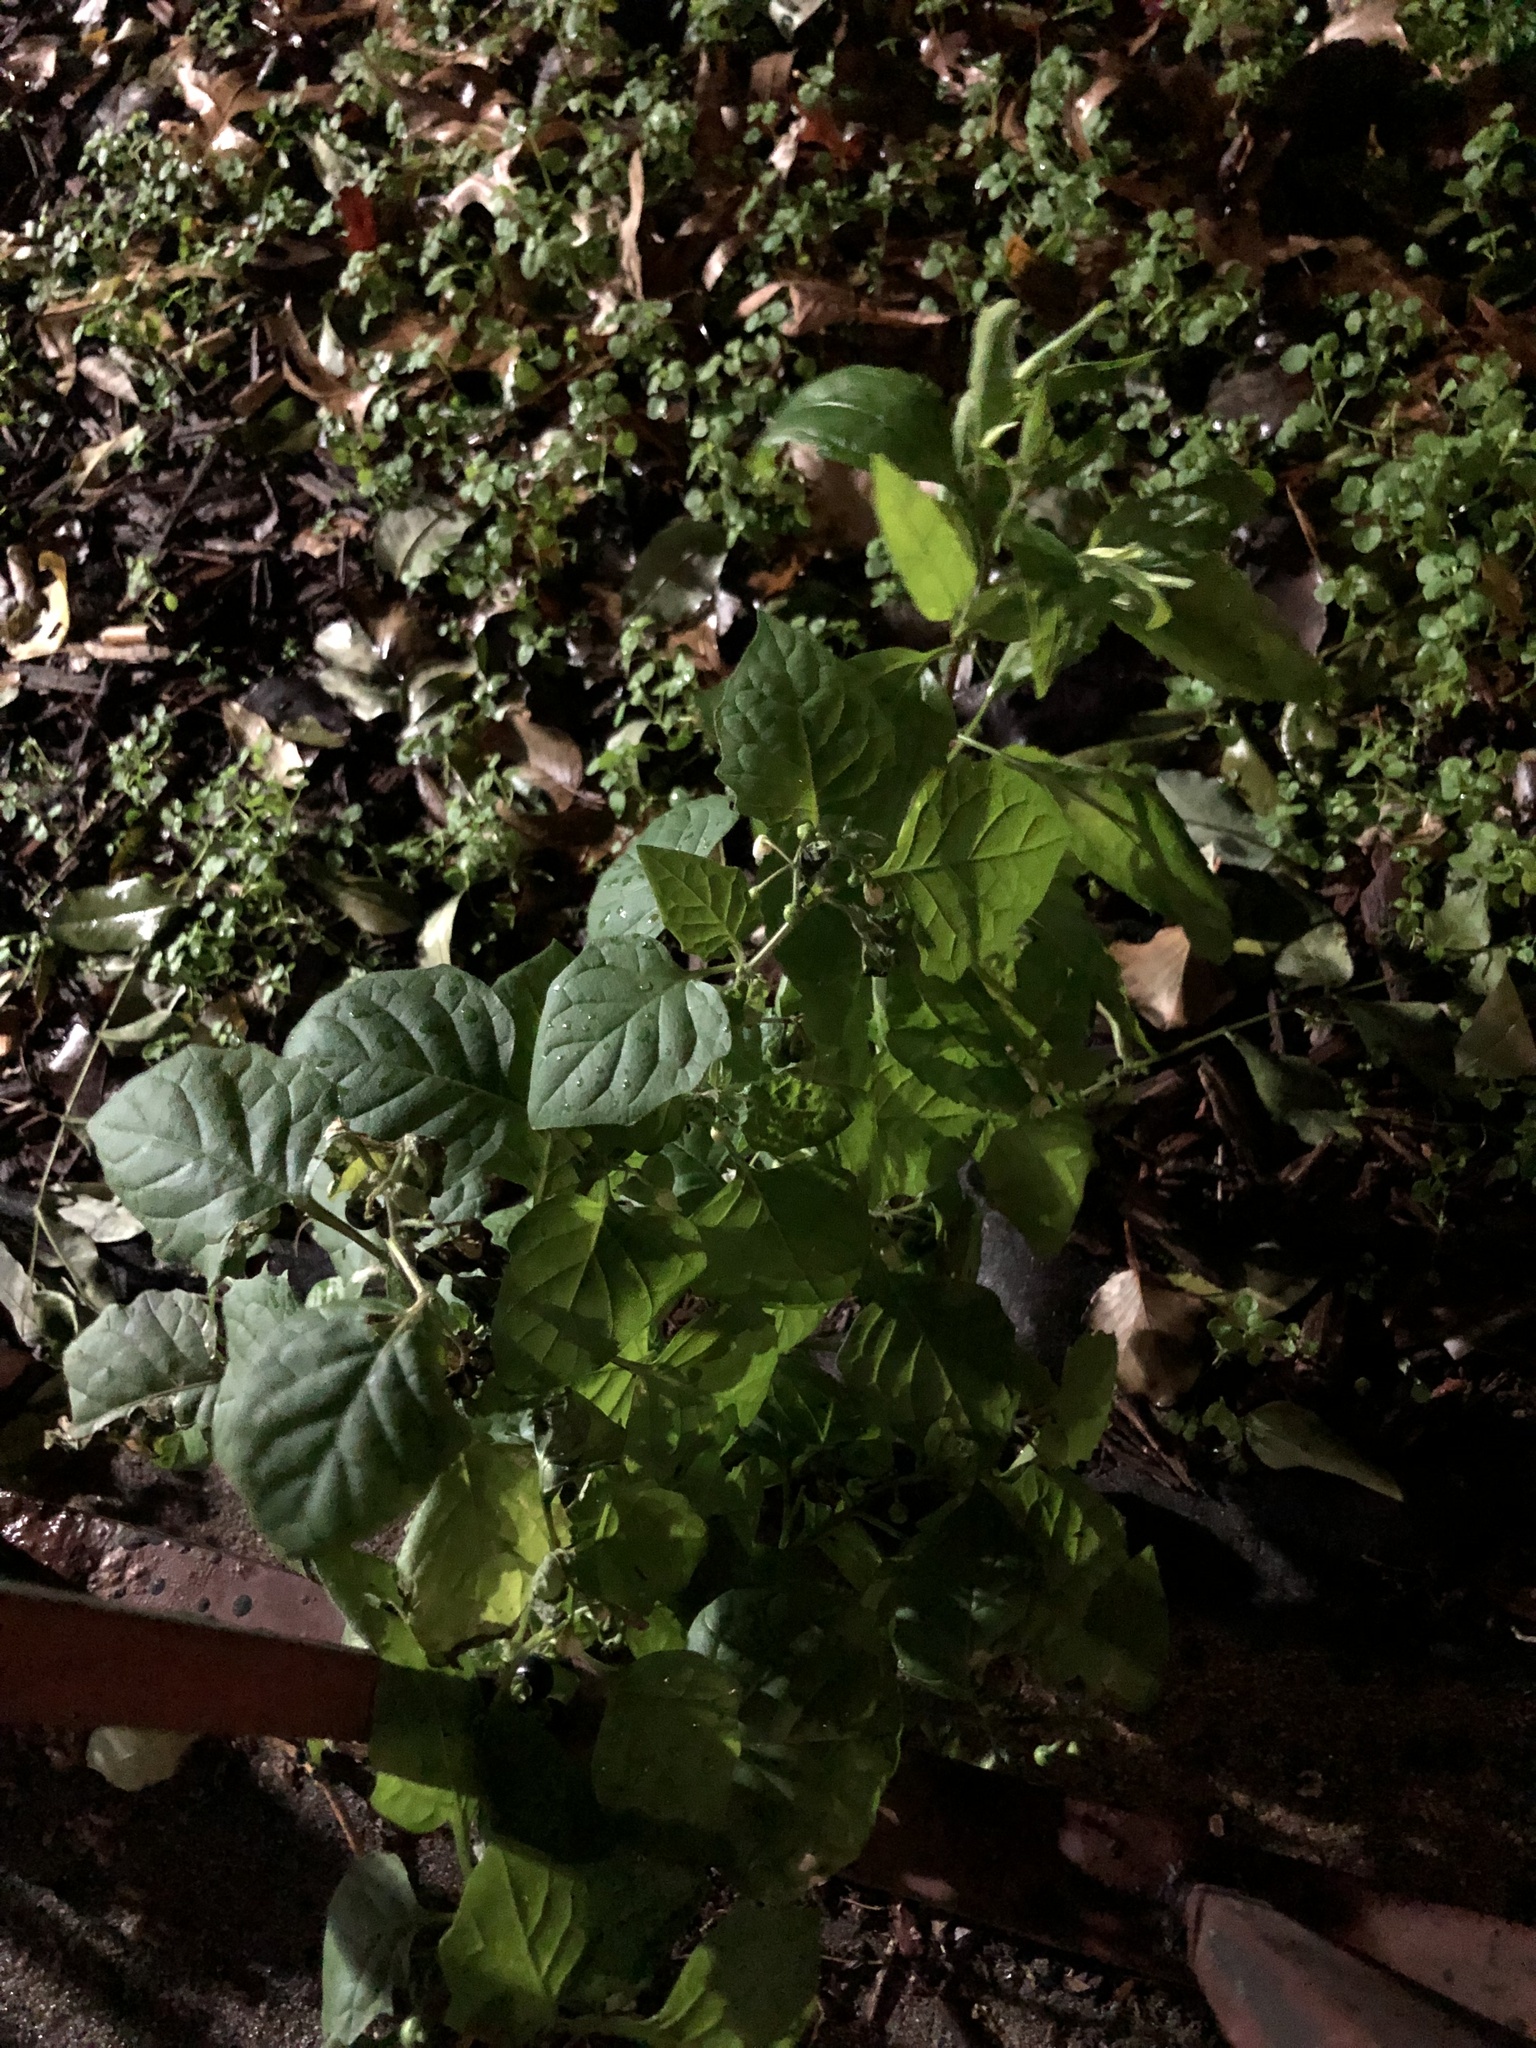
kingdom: Plantae
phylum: Tracheophyta
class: Magnoliopsida
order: Solanales
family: Solanaceae
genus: Solanum
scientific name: Solanum nigrum
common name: Black nightshade
